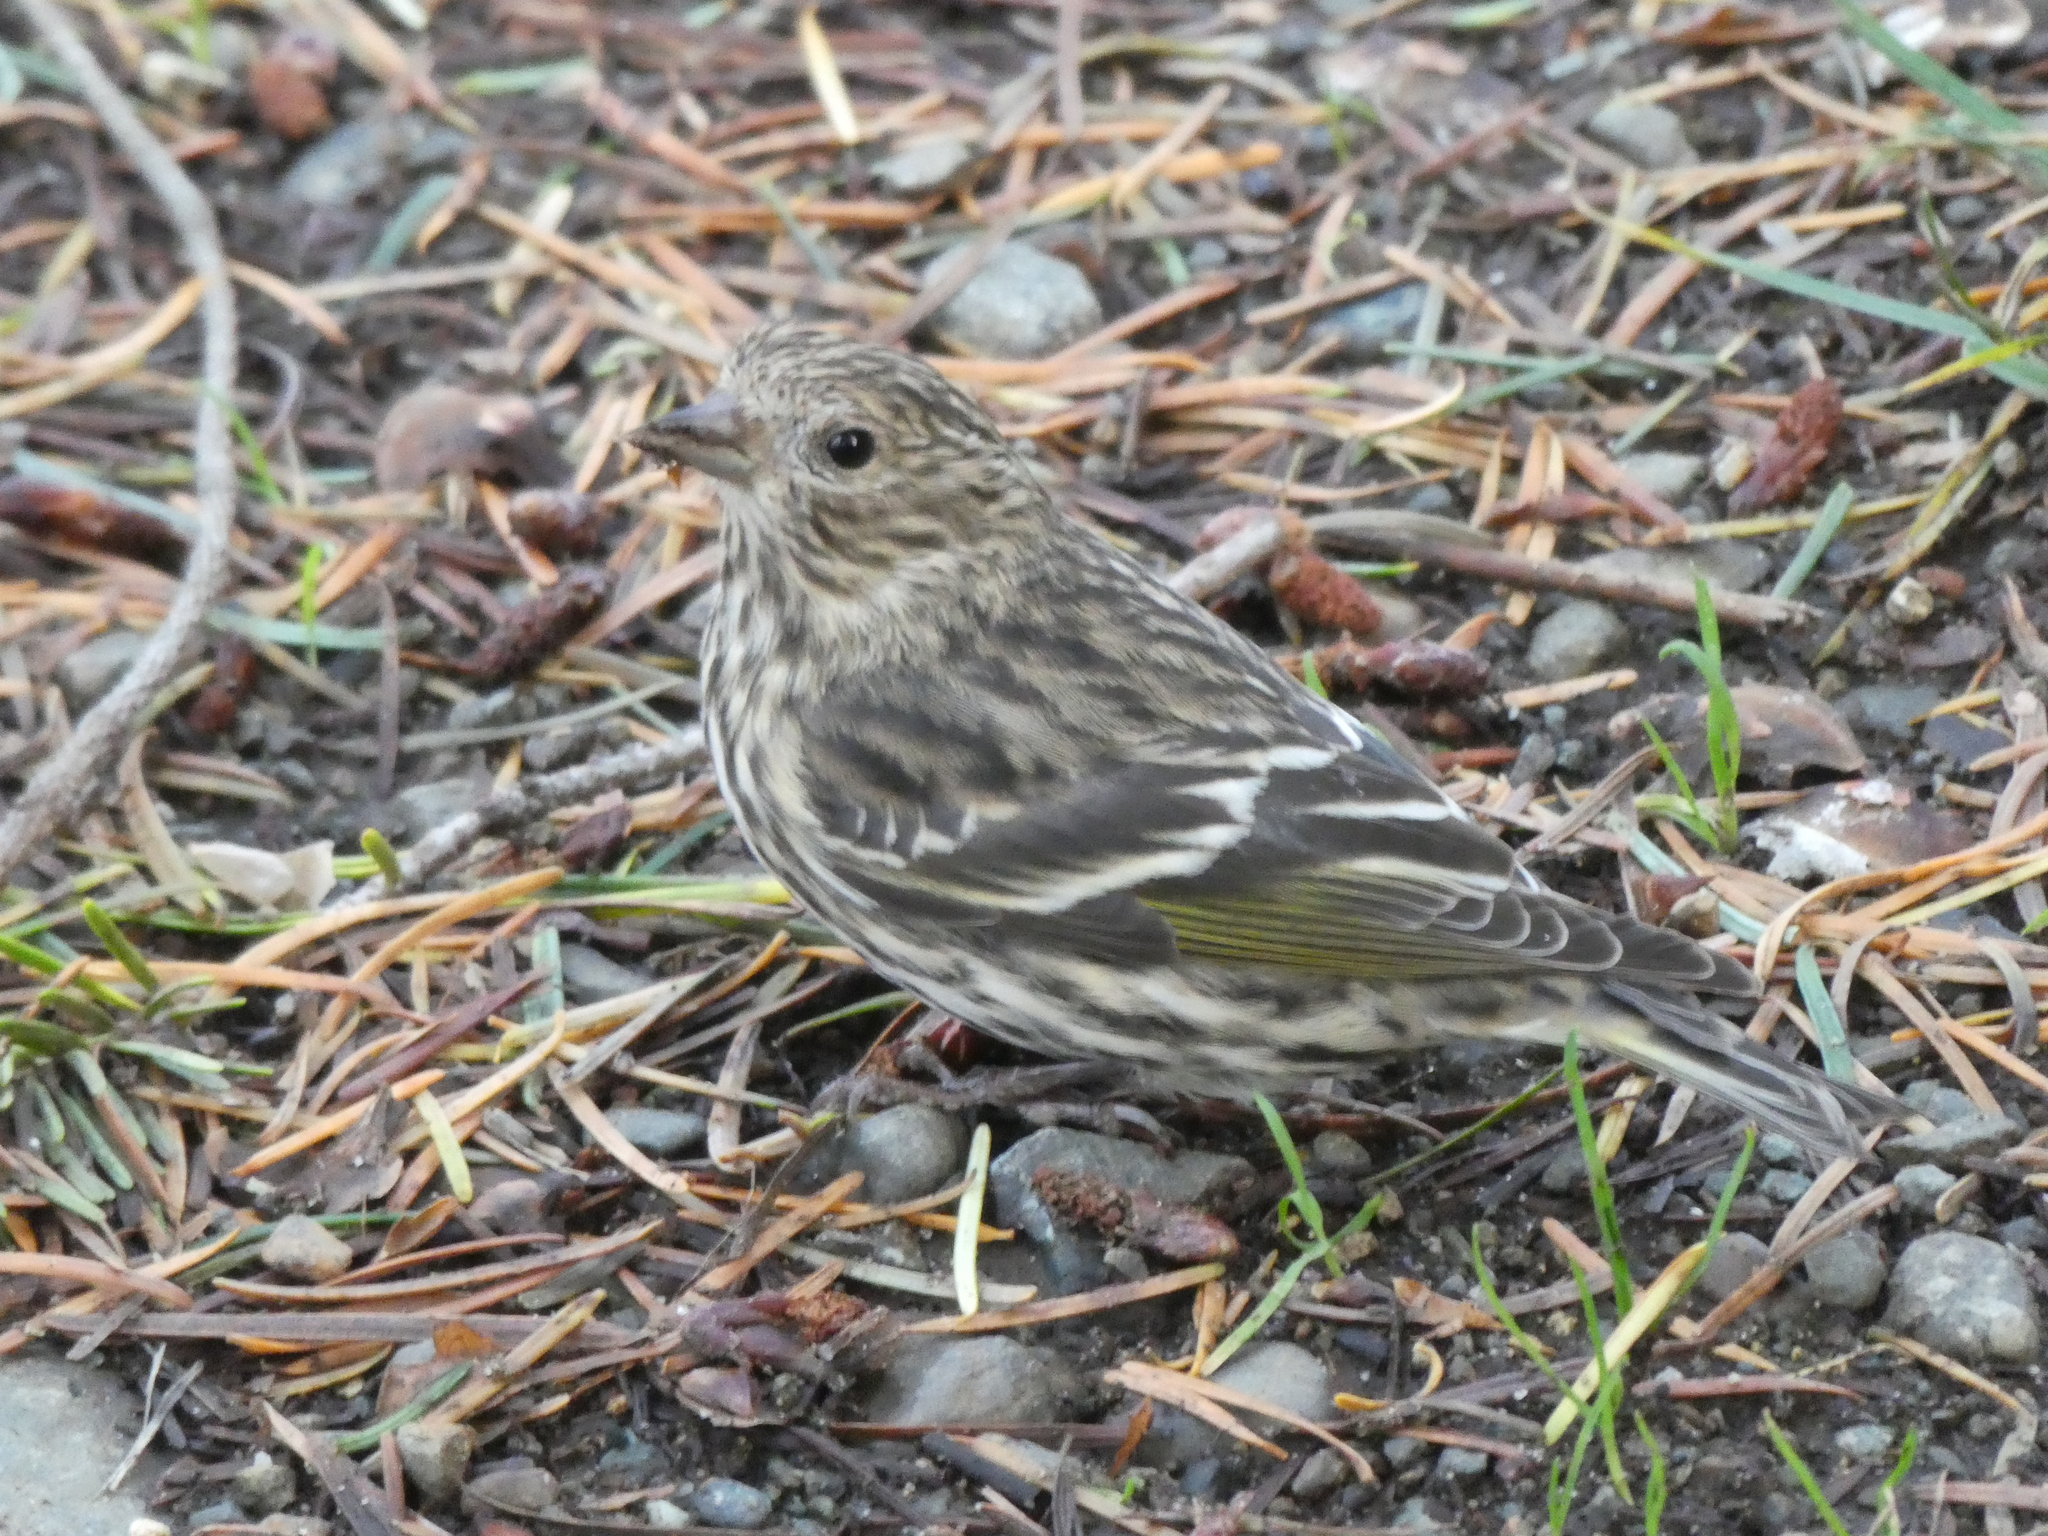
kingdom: Animalia
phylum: Chordata
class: Aves
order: Passeriformes
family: Fringillidae
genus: Spinus
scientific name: Spinus pinus
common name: Pine siskin
